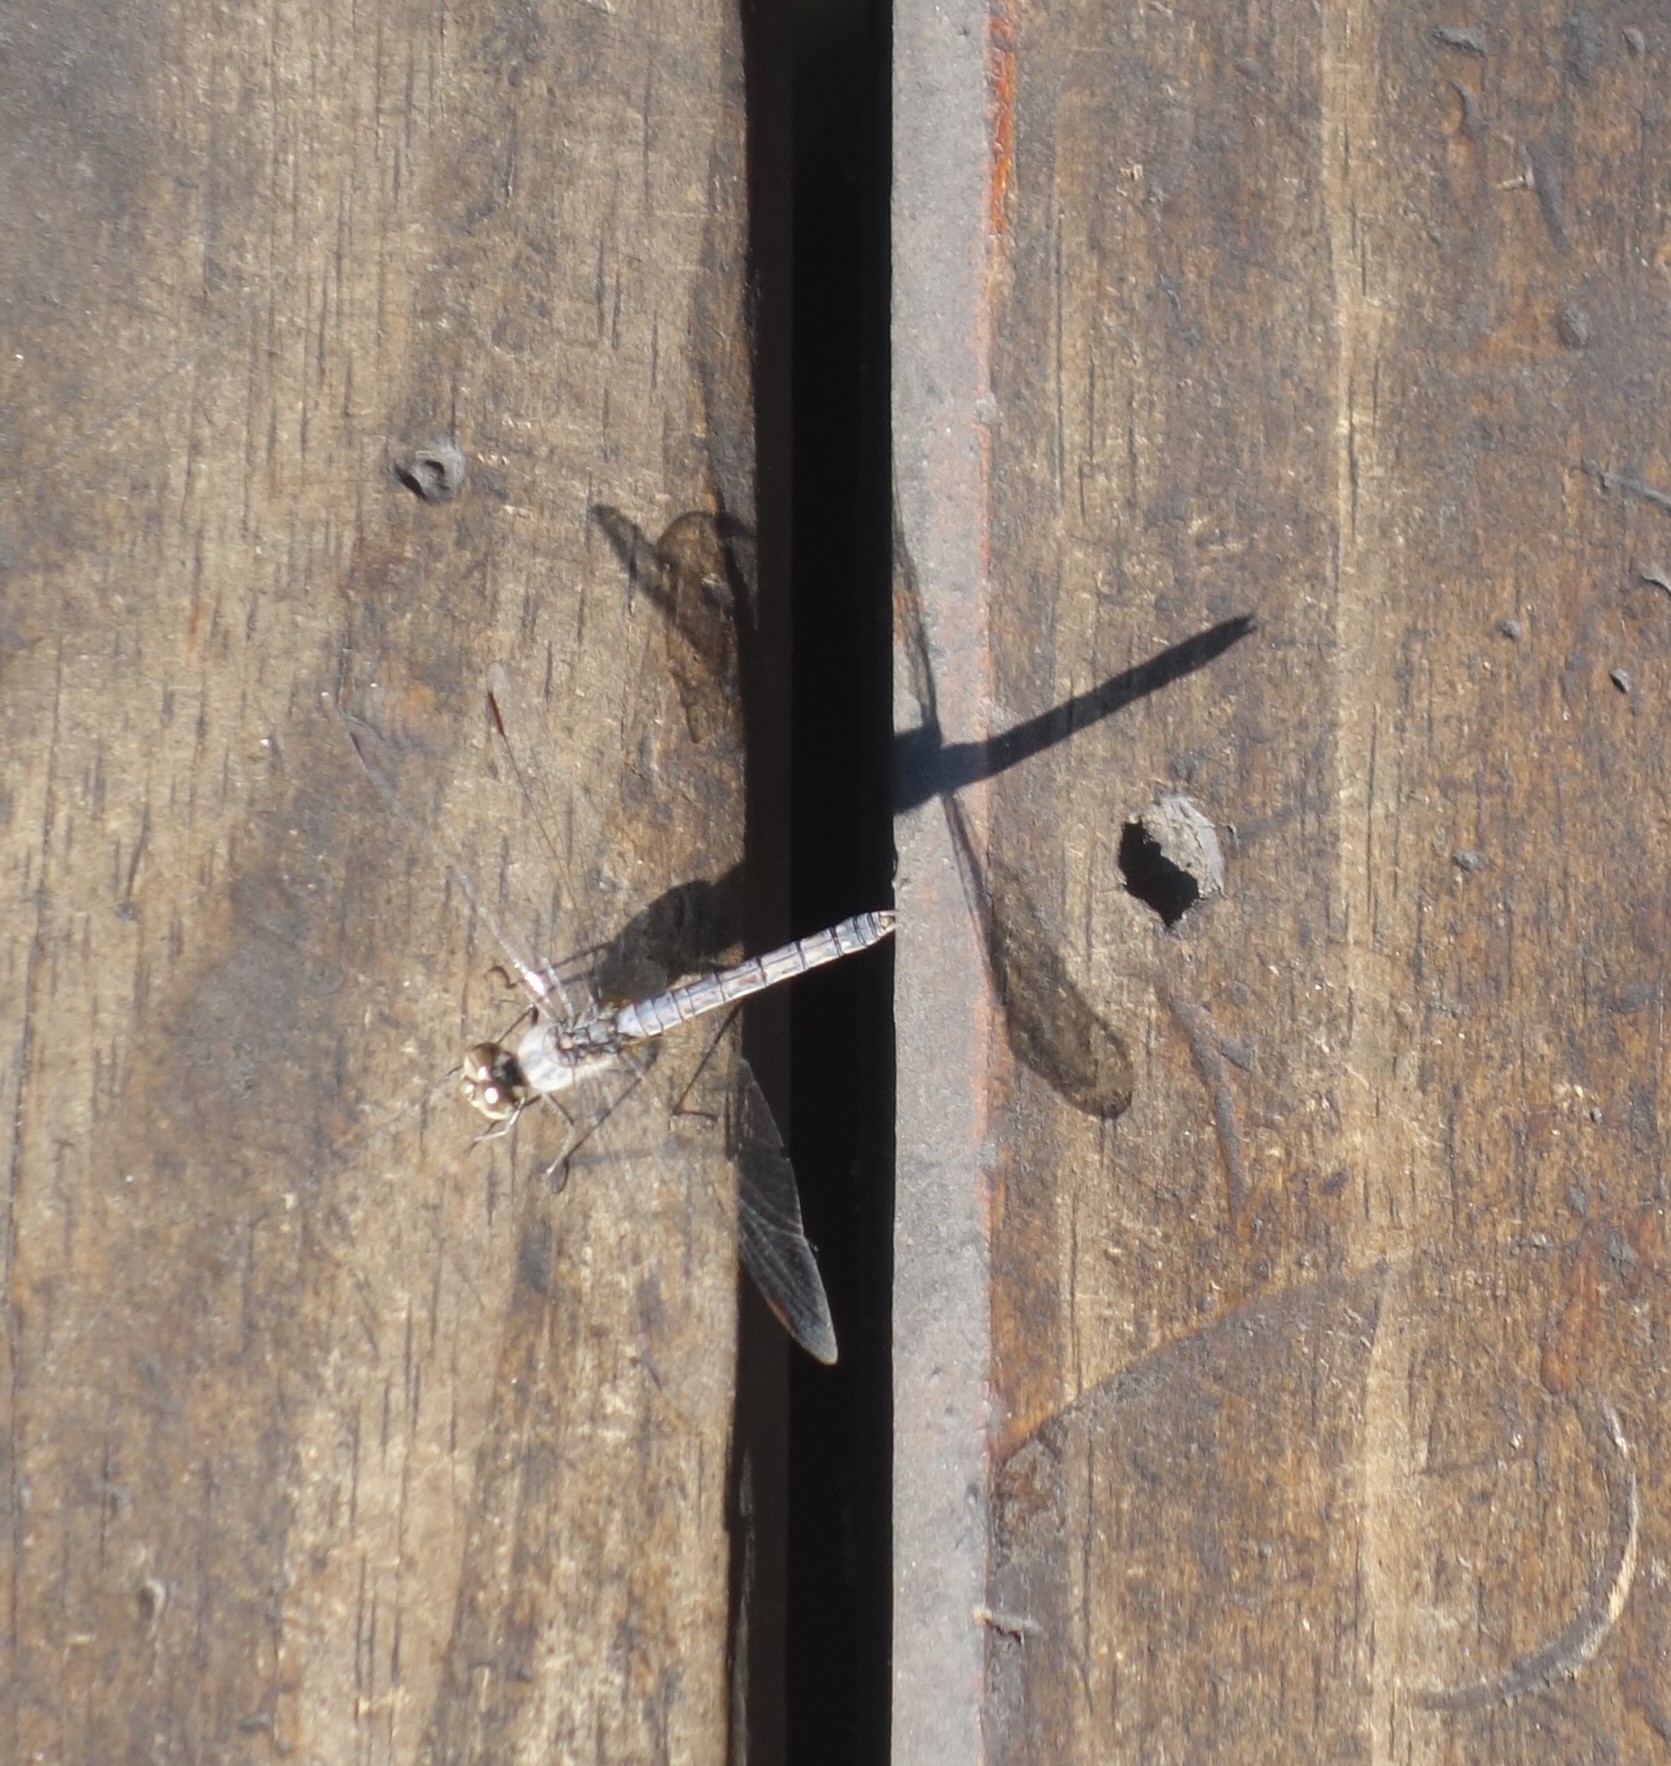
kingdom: Animalia
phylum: Arthropoda
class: Insecta
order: Odonata
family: Libellulidae
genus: Brachythemis
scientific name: Brachythemis leucosticta
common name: Banded groundling
